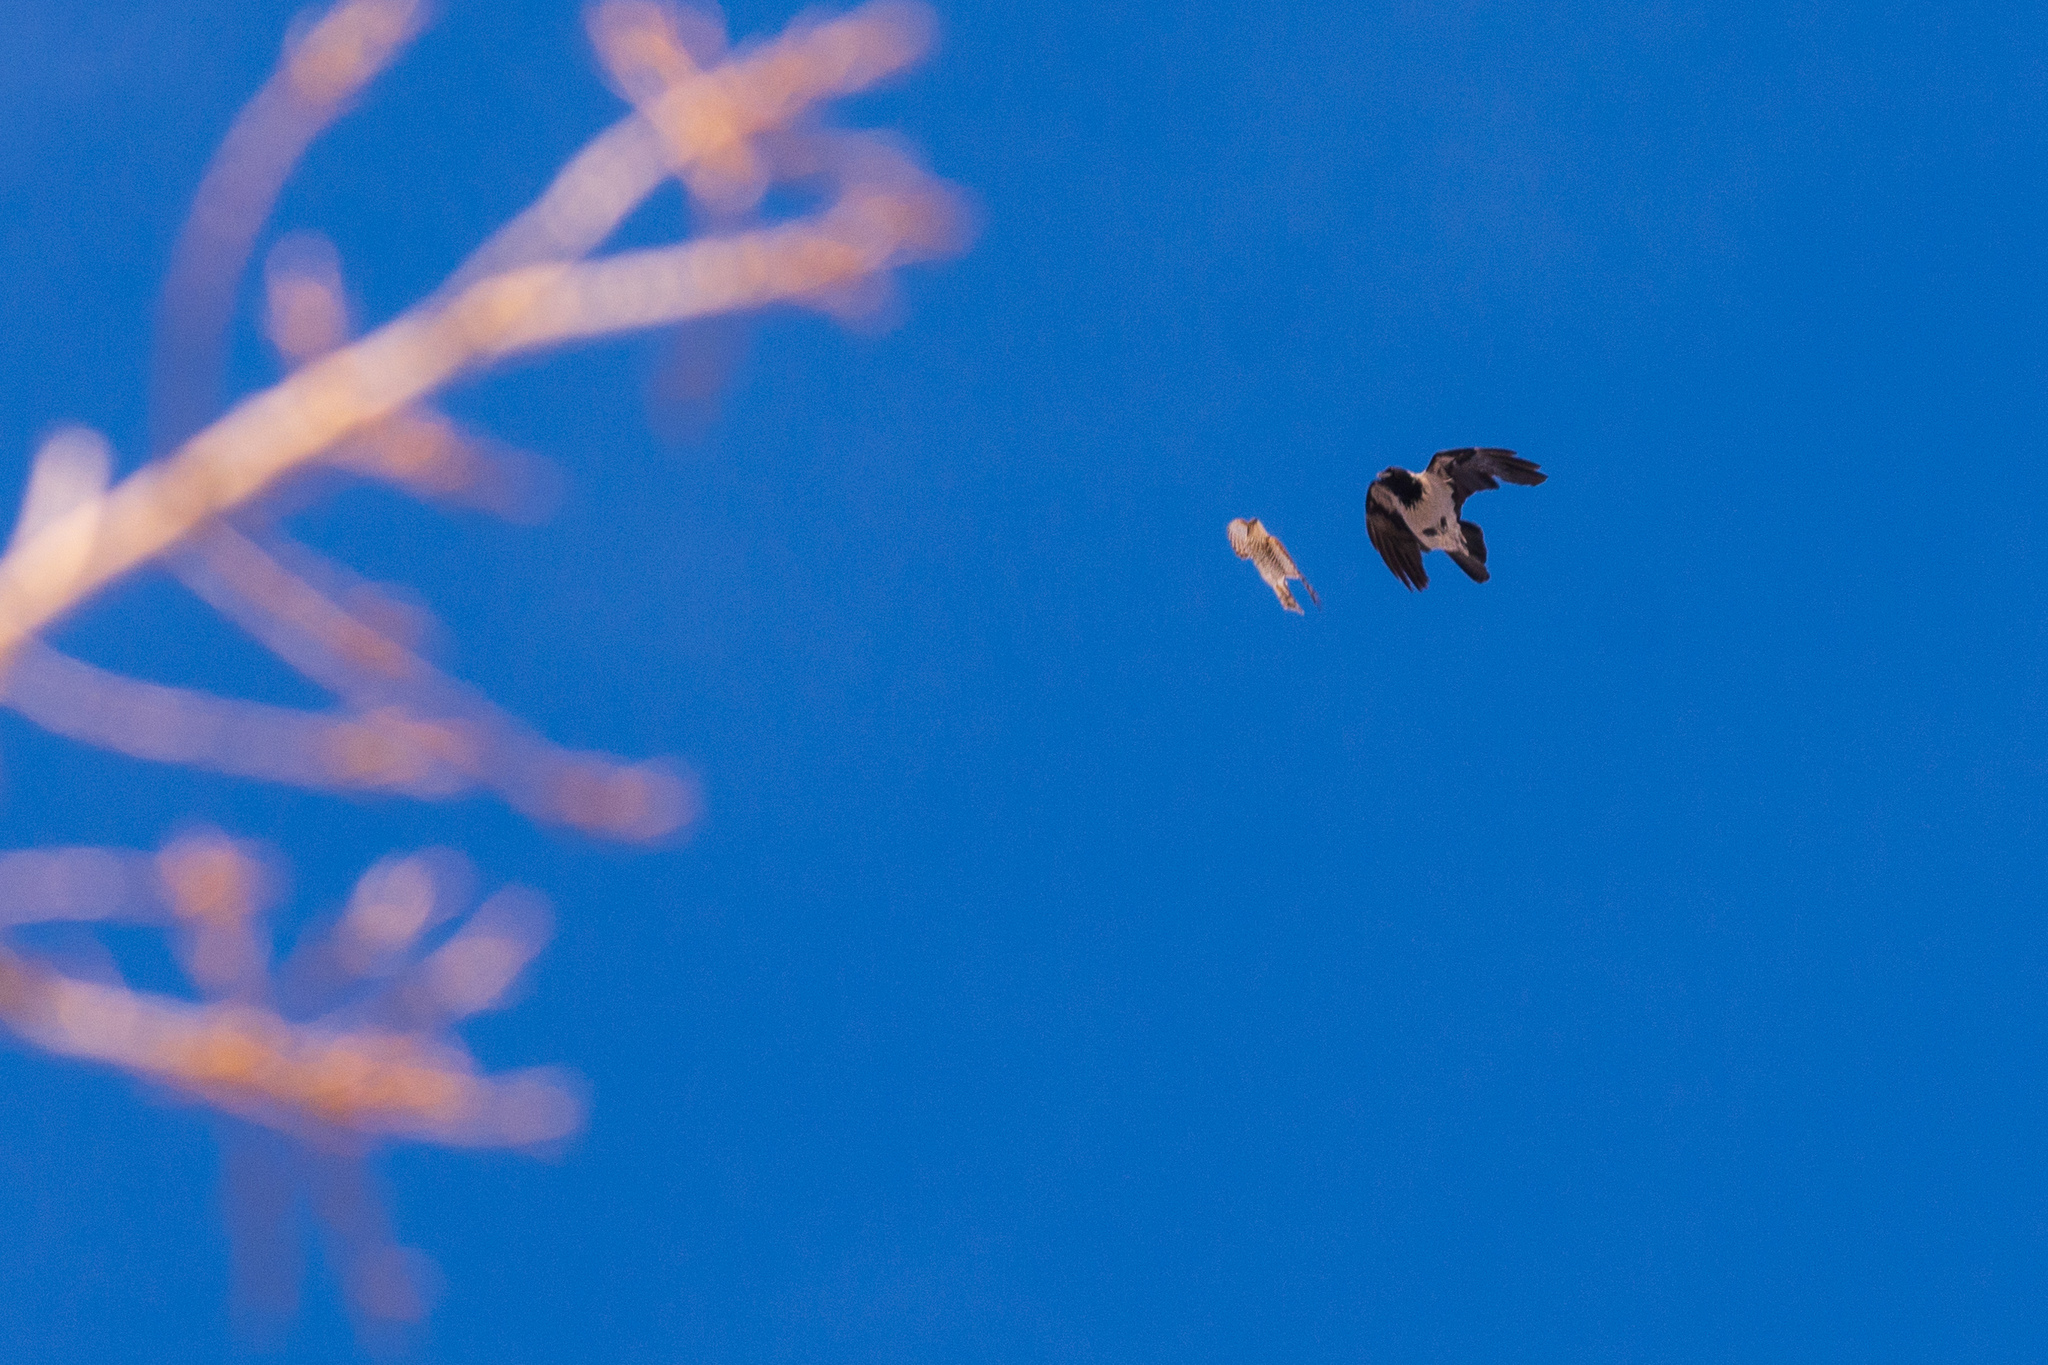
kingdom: Animalia
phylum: Chordata
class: Aves
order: Accipitriformes
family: Accipitridae
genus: Accipiter
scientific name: Accipiter nisus
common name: Eurasian sparrowhawk
